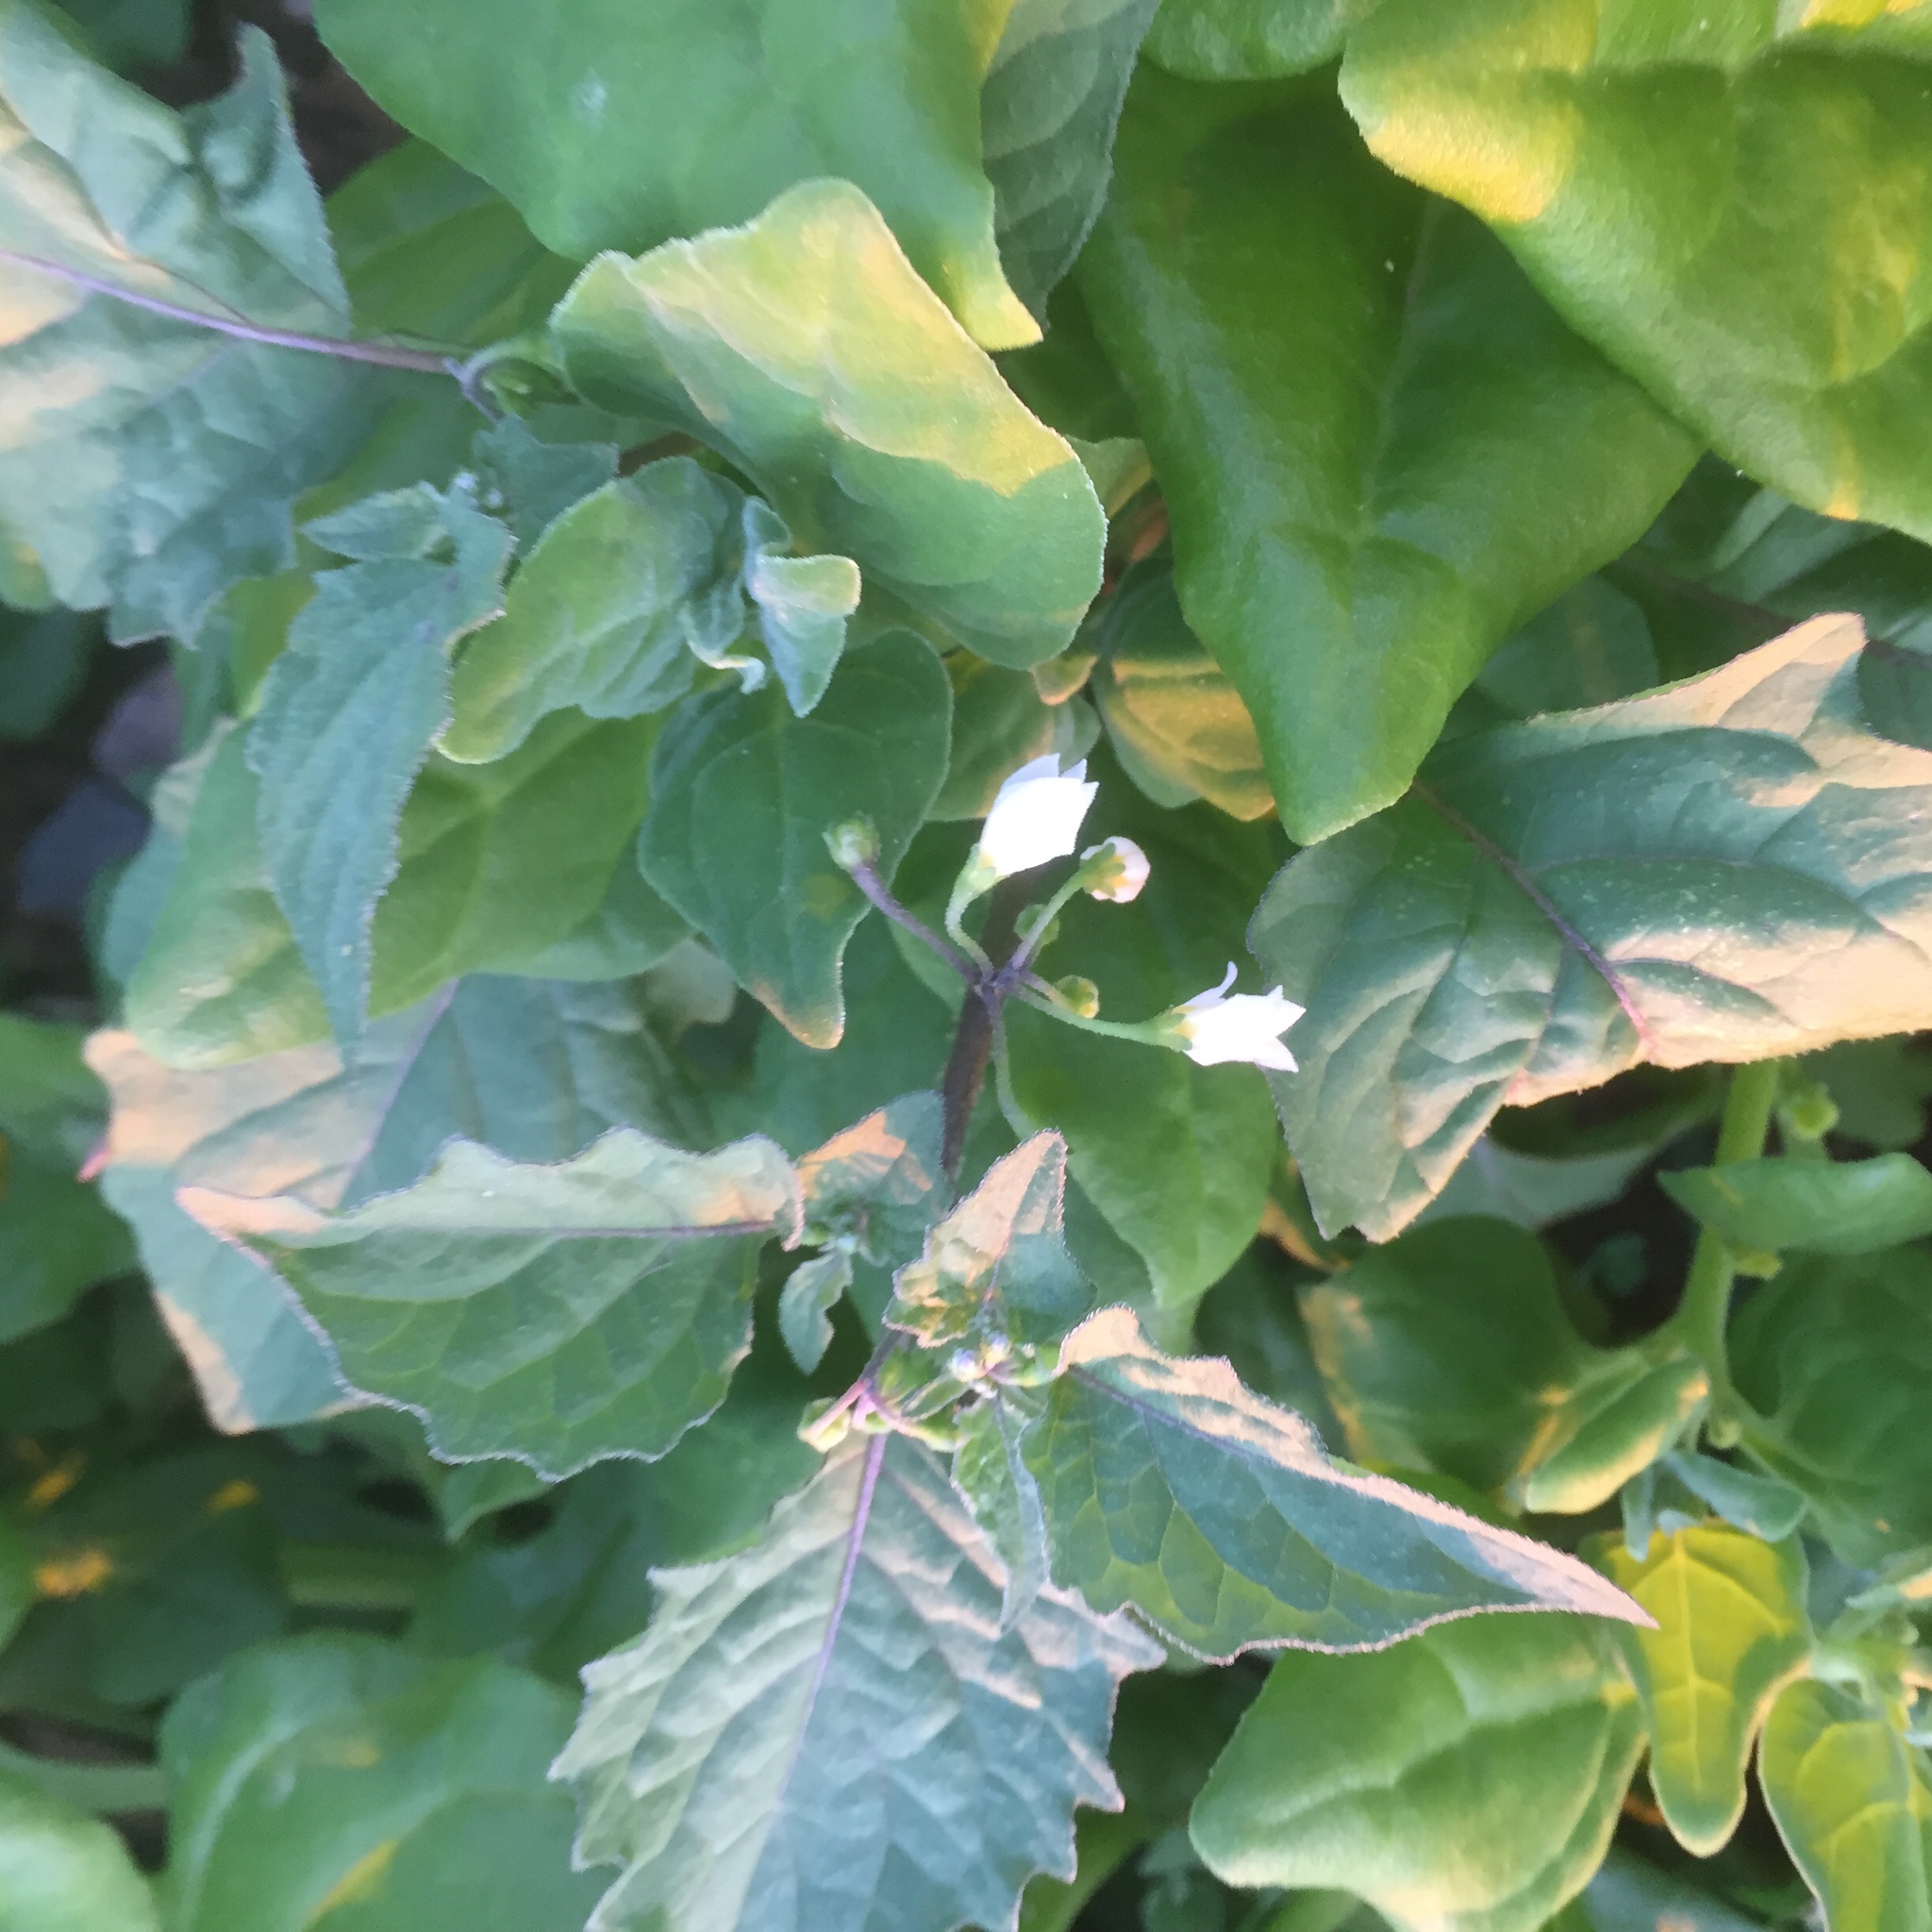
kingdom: Plantae
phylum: Tracheophyta
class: Magnoliopsida
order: Solanales
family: Solanaceae
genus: Solanum
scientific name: Solanum nigrum
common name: Black nightshade
